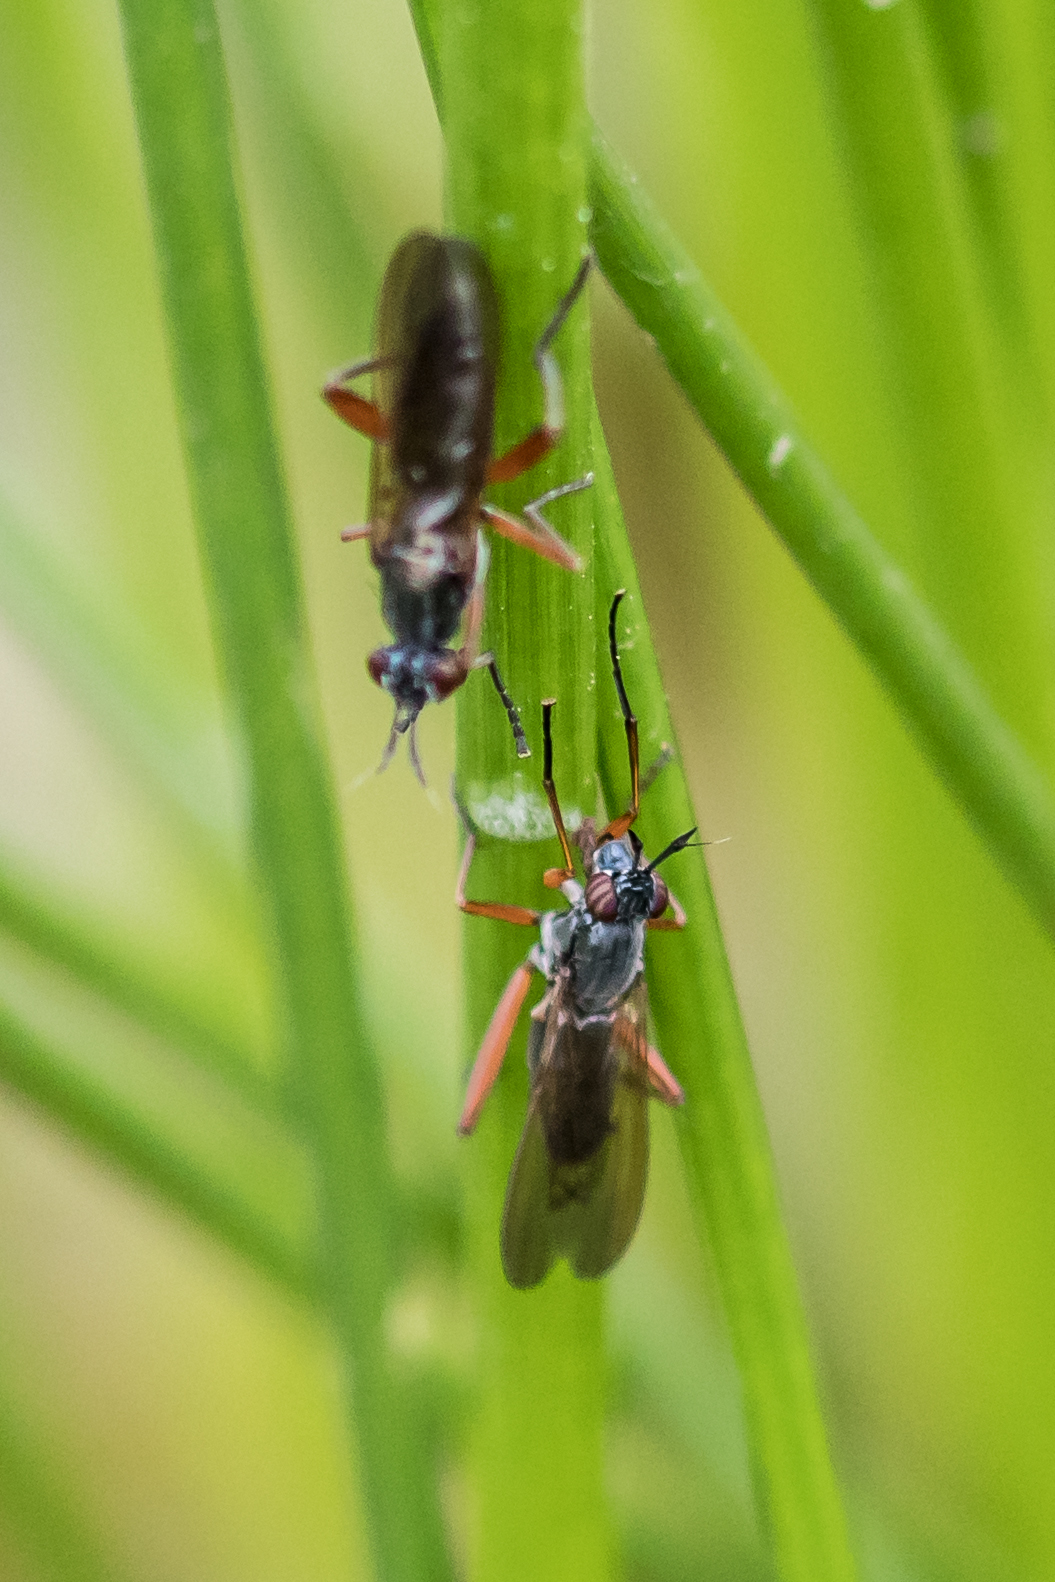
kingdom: Animalia
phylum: Arthropoda
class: Insecta
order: Diptera
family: Sciomyzidae
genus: Sepedon
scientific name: Sepedon sphegea
